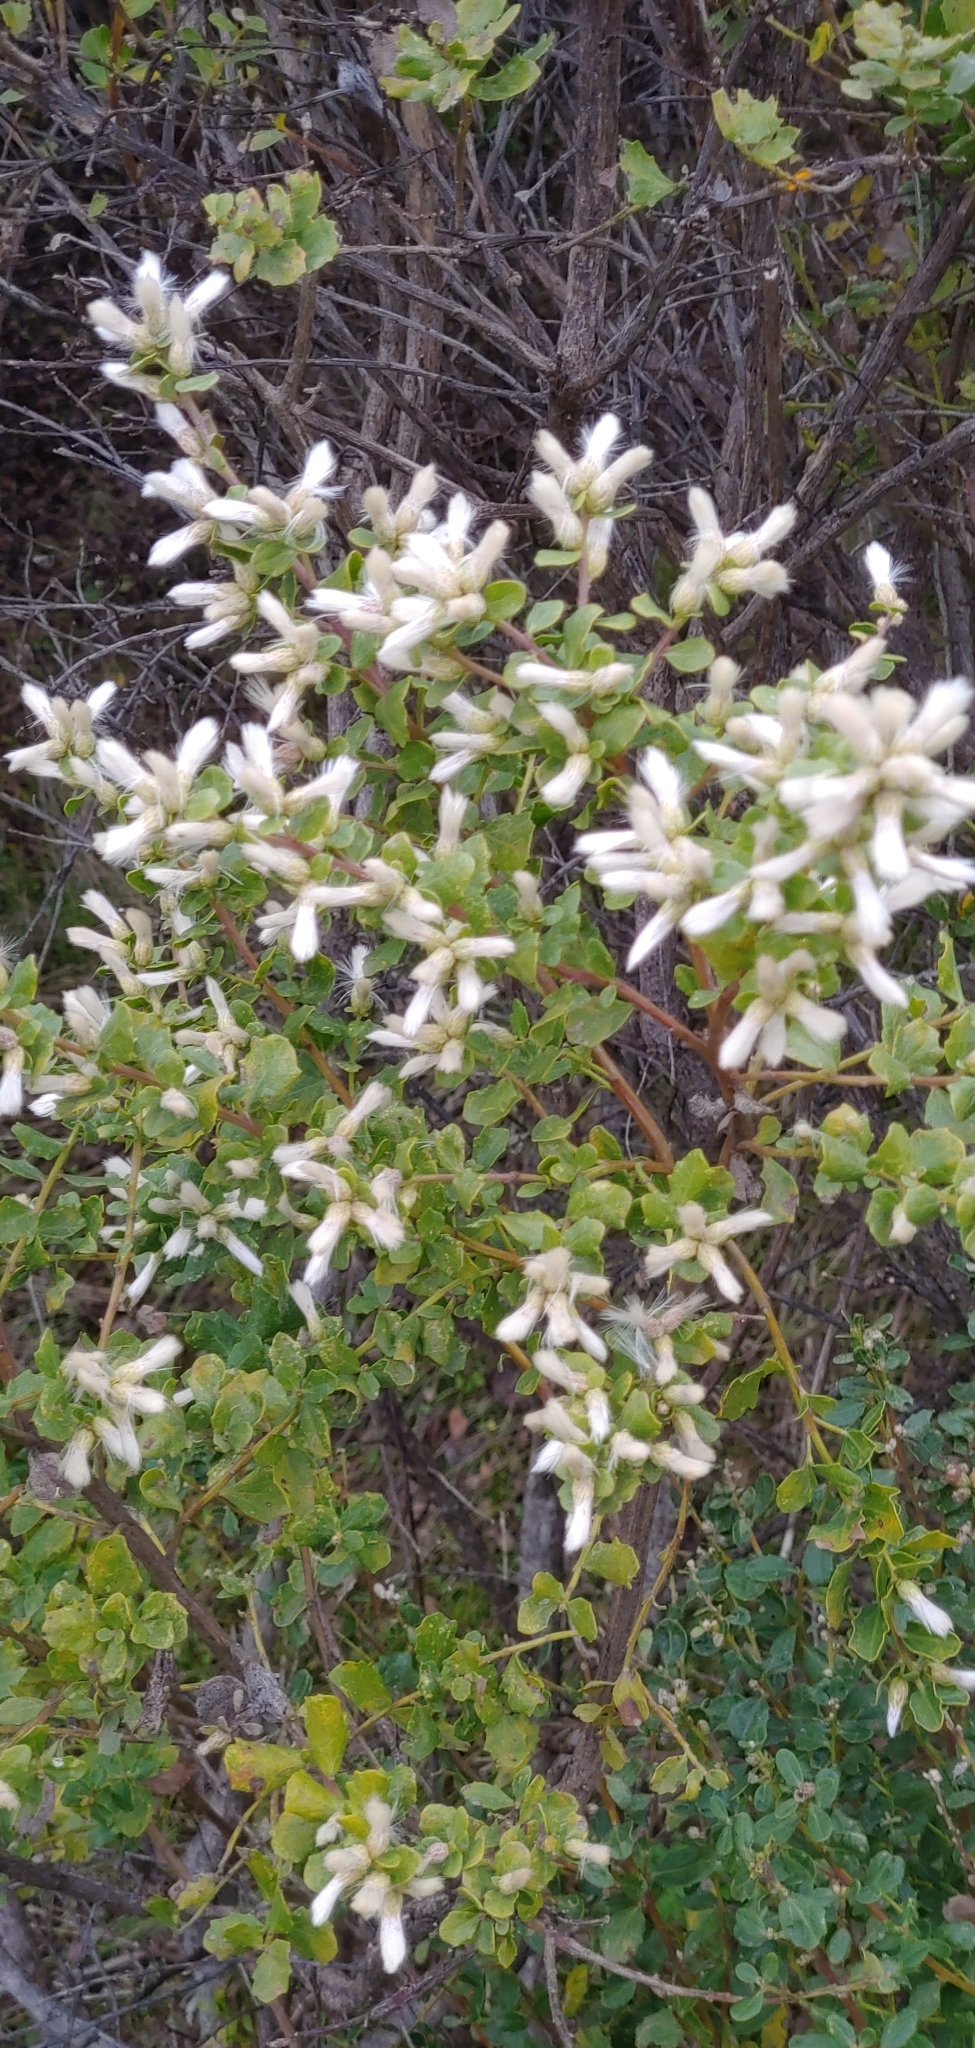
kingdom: Plantae
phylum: Tracheophyta
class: Magnoliopsida
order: Asterales
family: Asteraceae
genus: Baccharis
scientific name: Baccharis pilularis
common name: Coyotebrush
